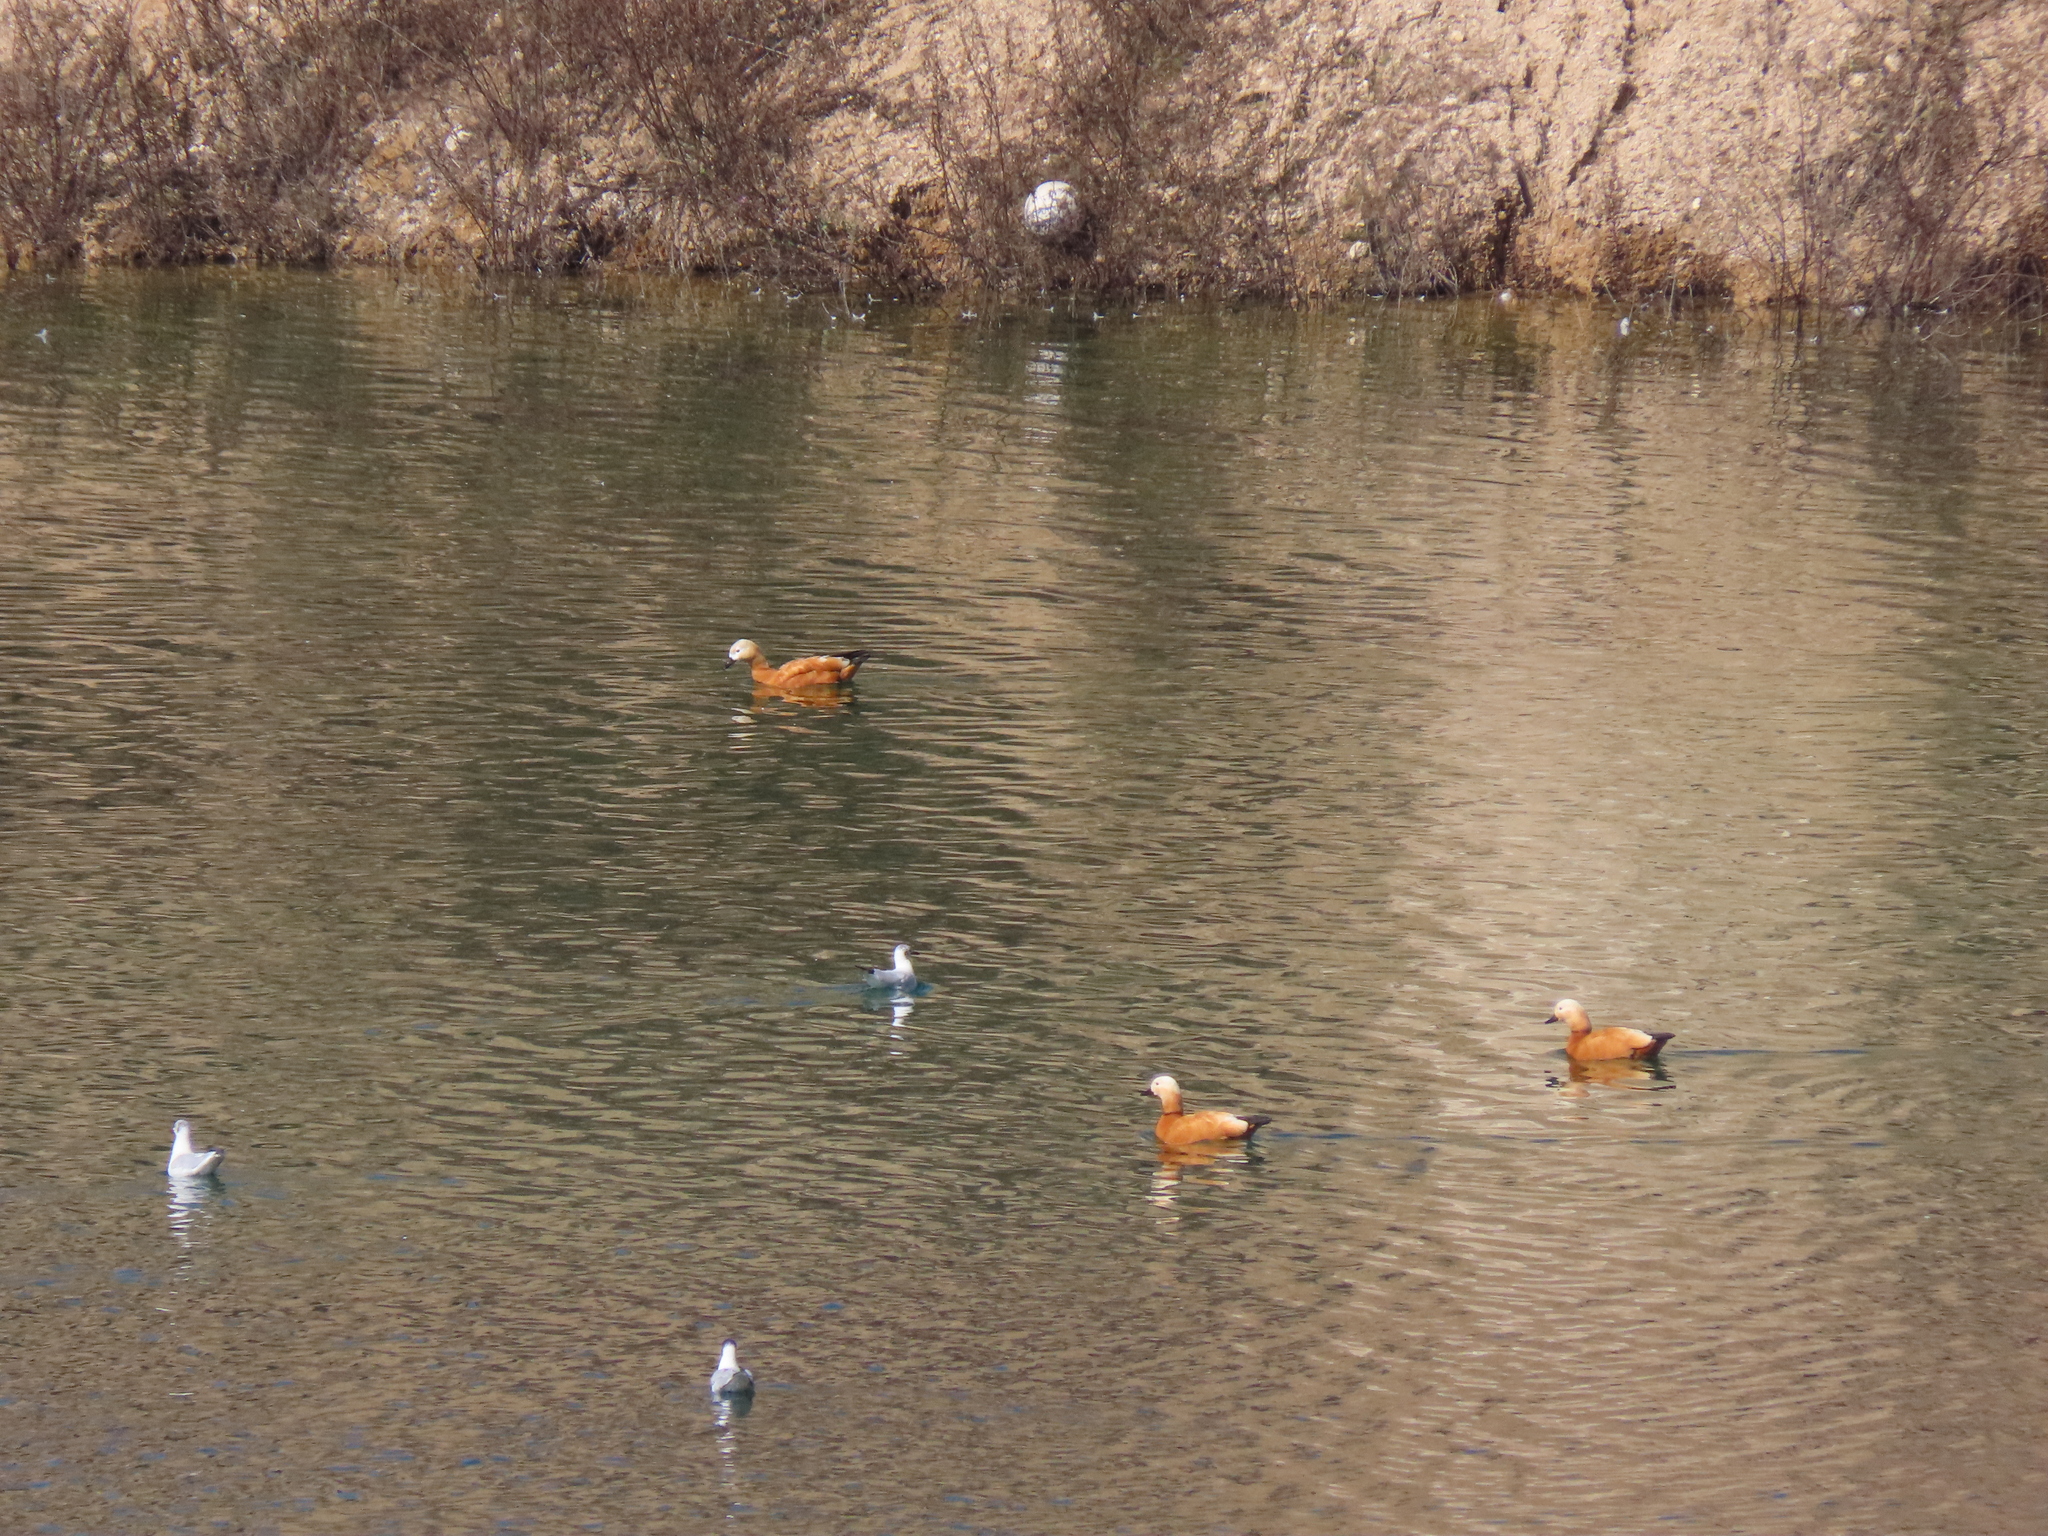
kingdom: Animalia
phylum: Chordata
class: Aves
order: Anseriformes
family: Anatidae
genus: Tadorna
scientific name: Tadorna ferruginea
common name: Ruddy shelduck
